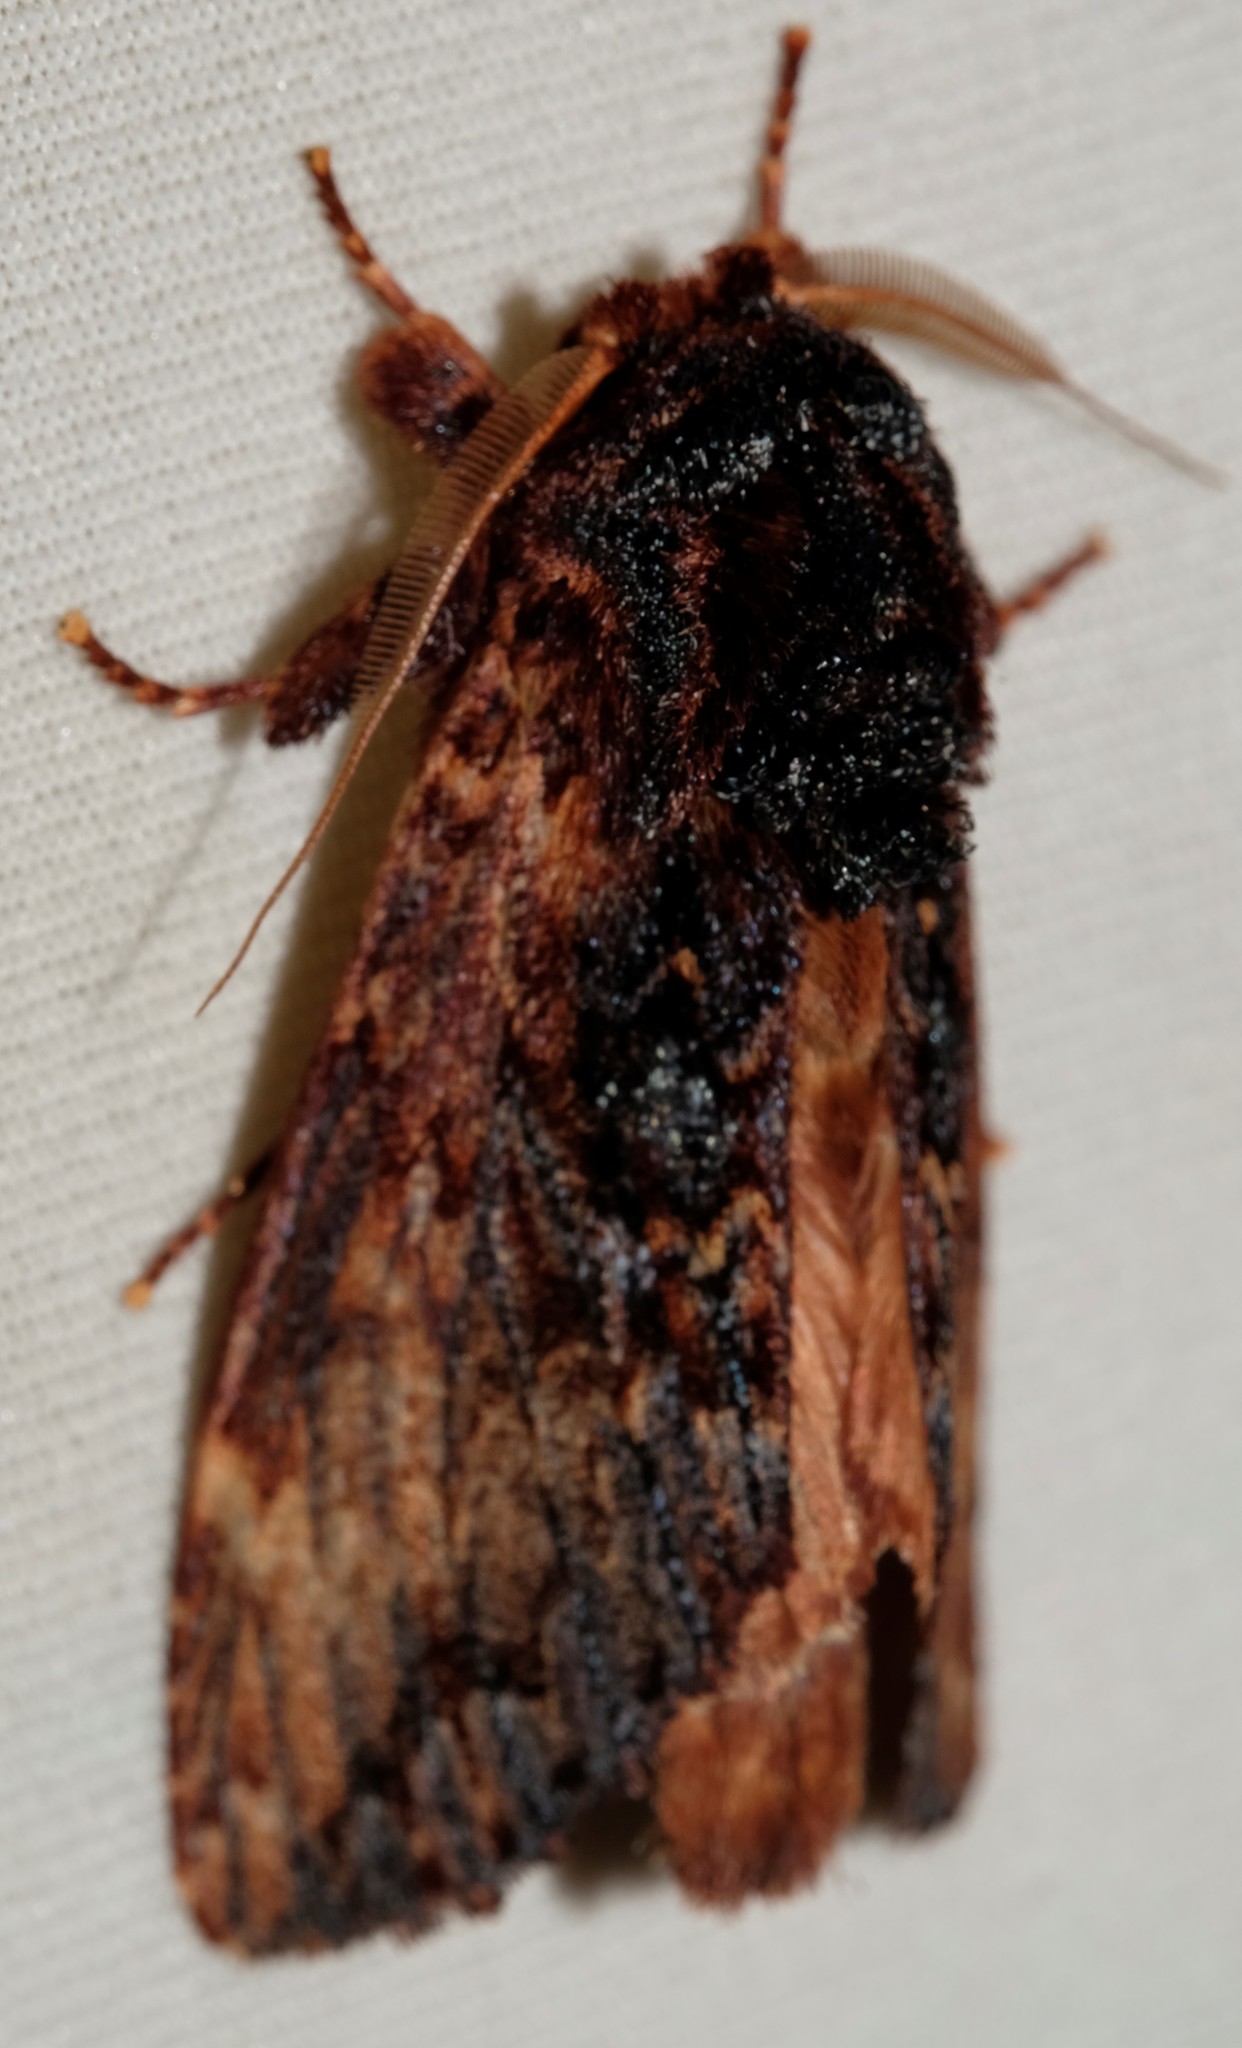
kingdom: Animalia
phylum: Arthropoda
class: Insecta
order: Lepidoptera
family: Notodontidae
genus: Sorama
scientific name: Sorama bicolor
